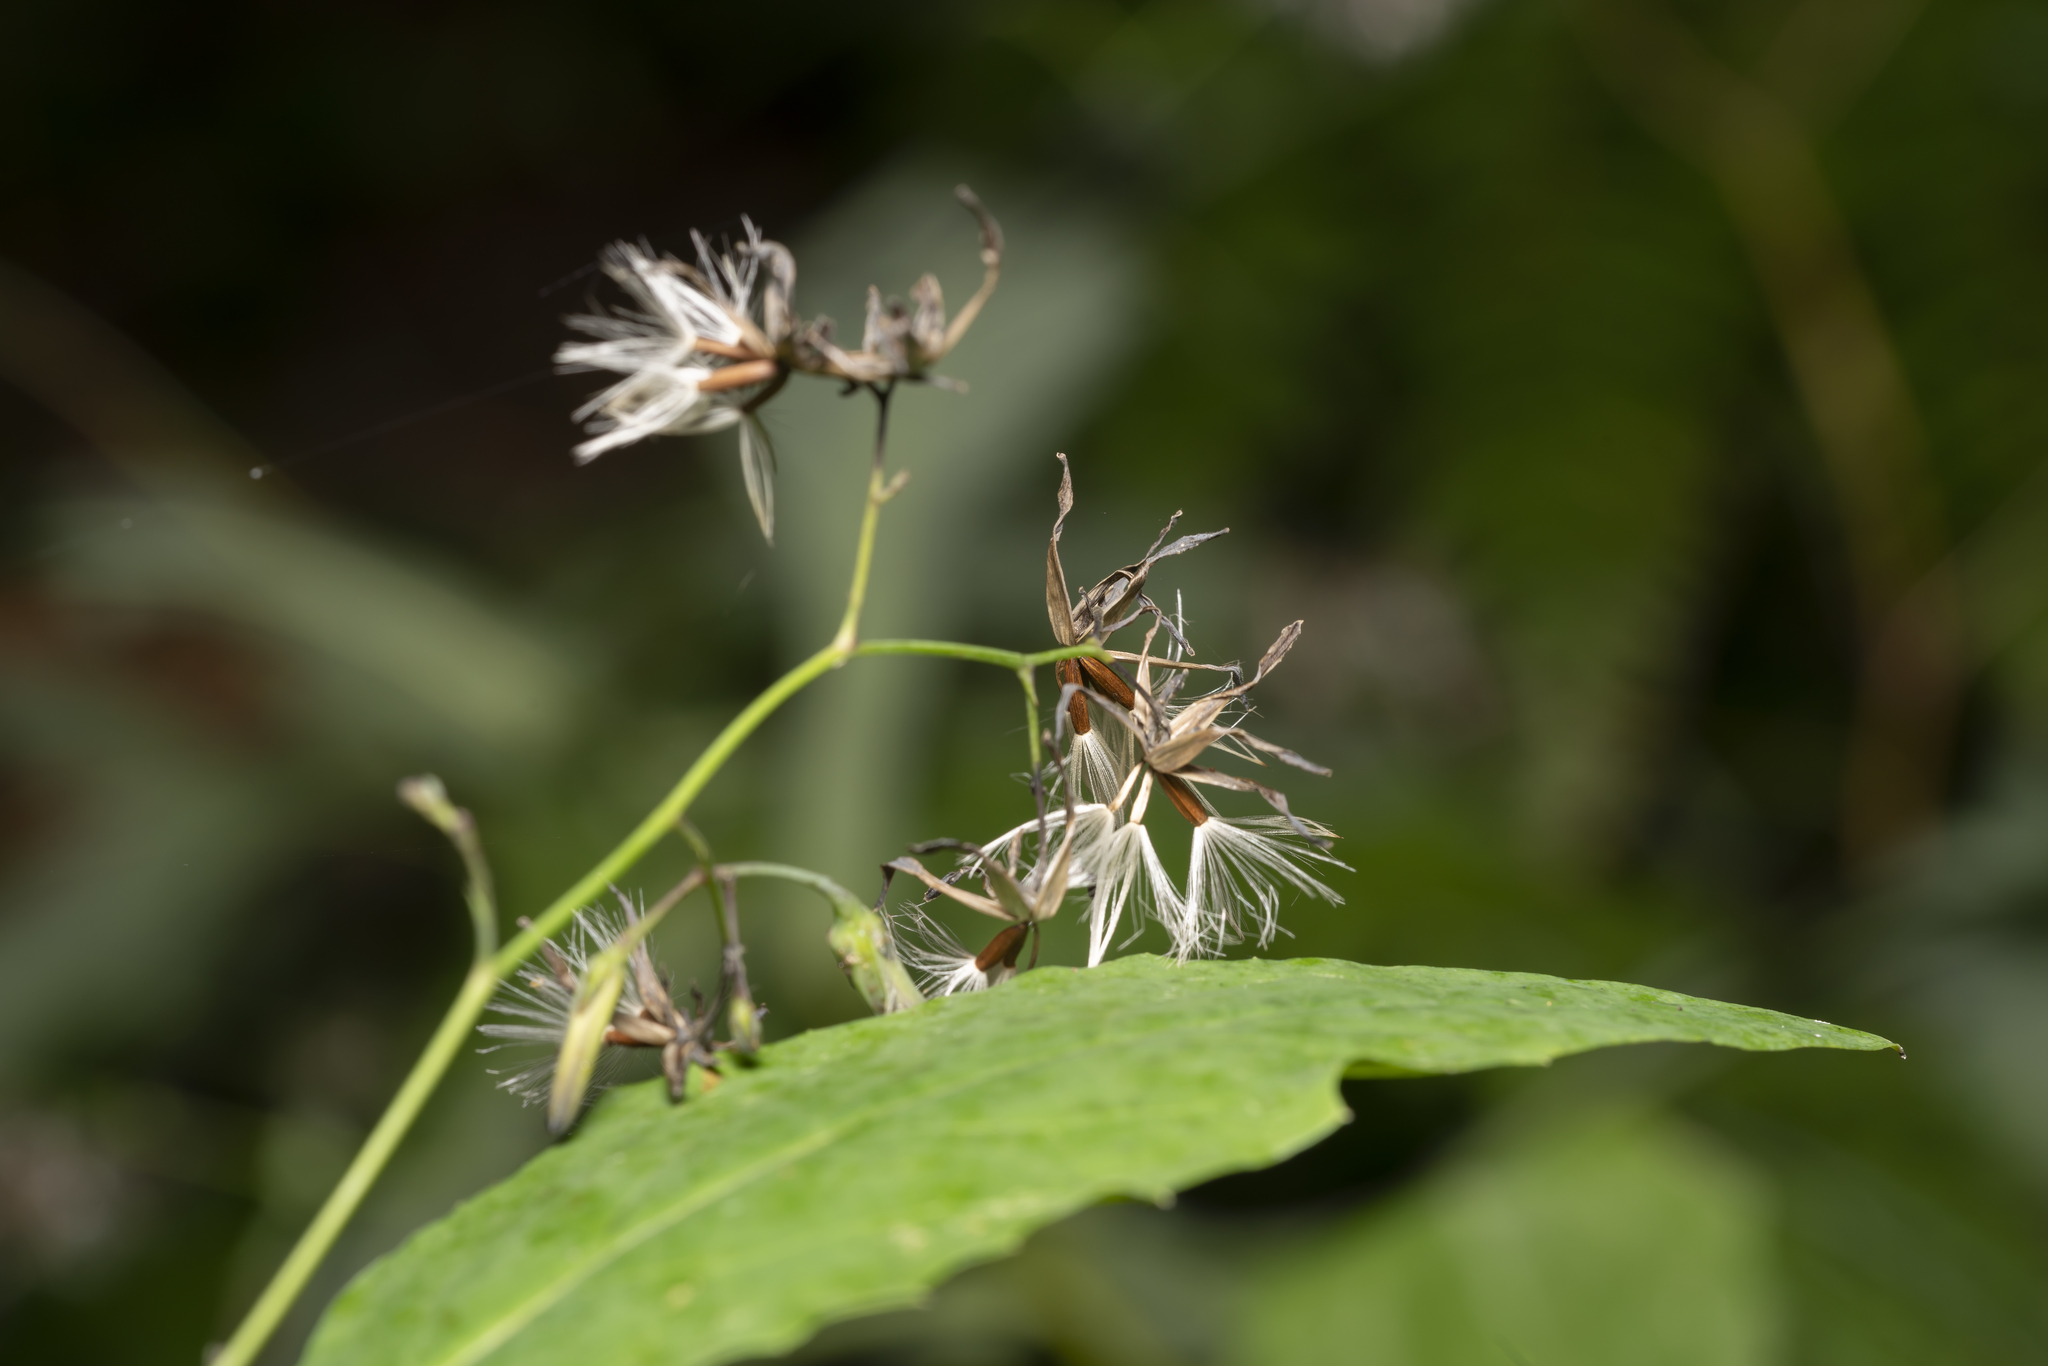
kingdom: Plantae
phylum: Tracheophyta
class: Magnoliopsida
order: Asterales
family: Asteraceae
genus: Prenanthes
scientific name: Prenanthes purpurea
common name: Purple lettuce
